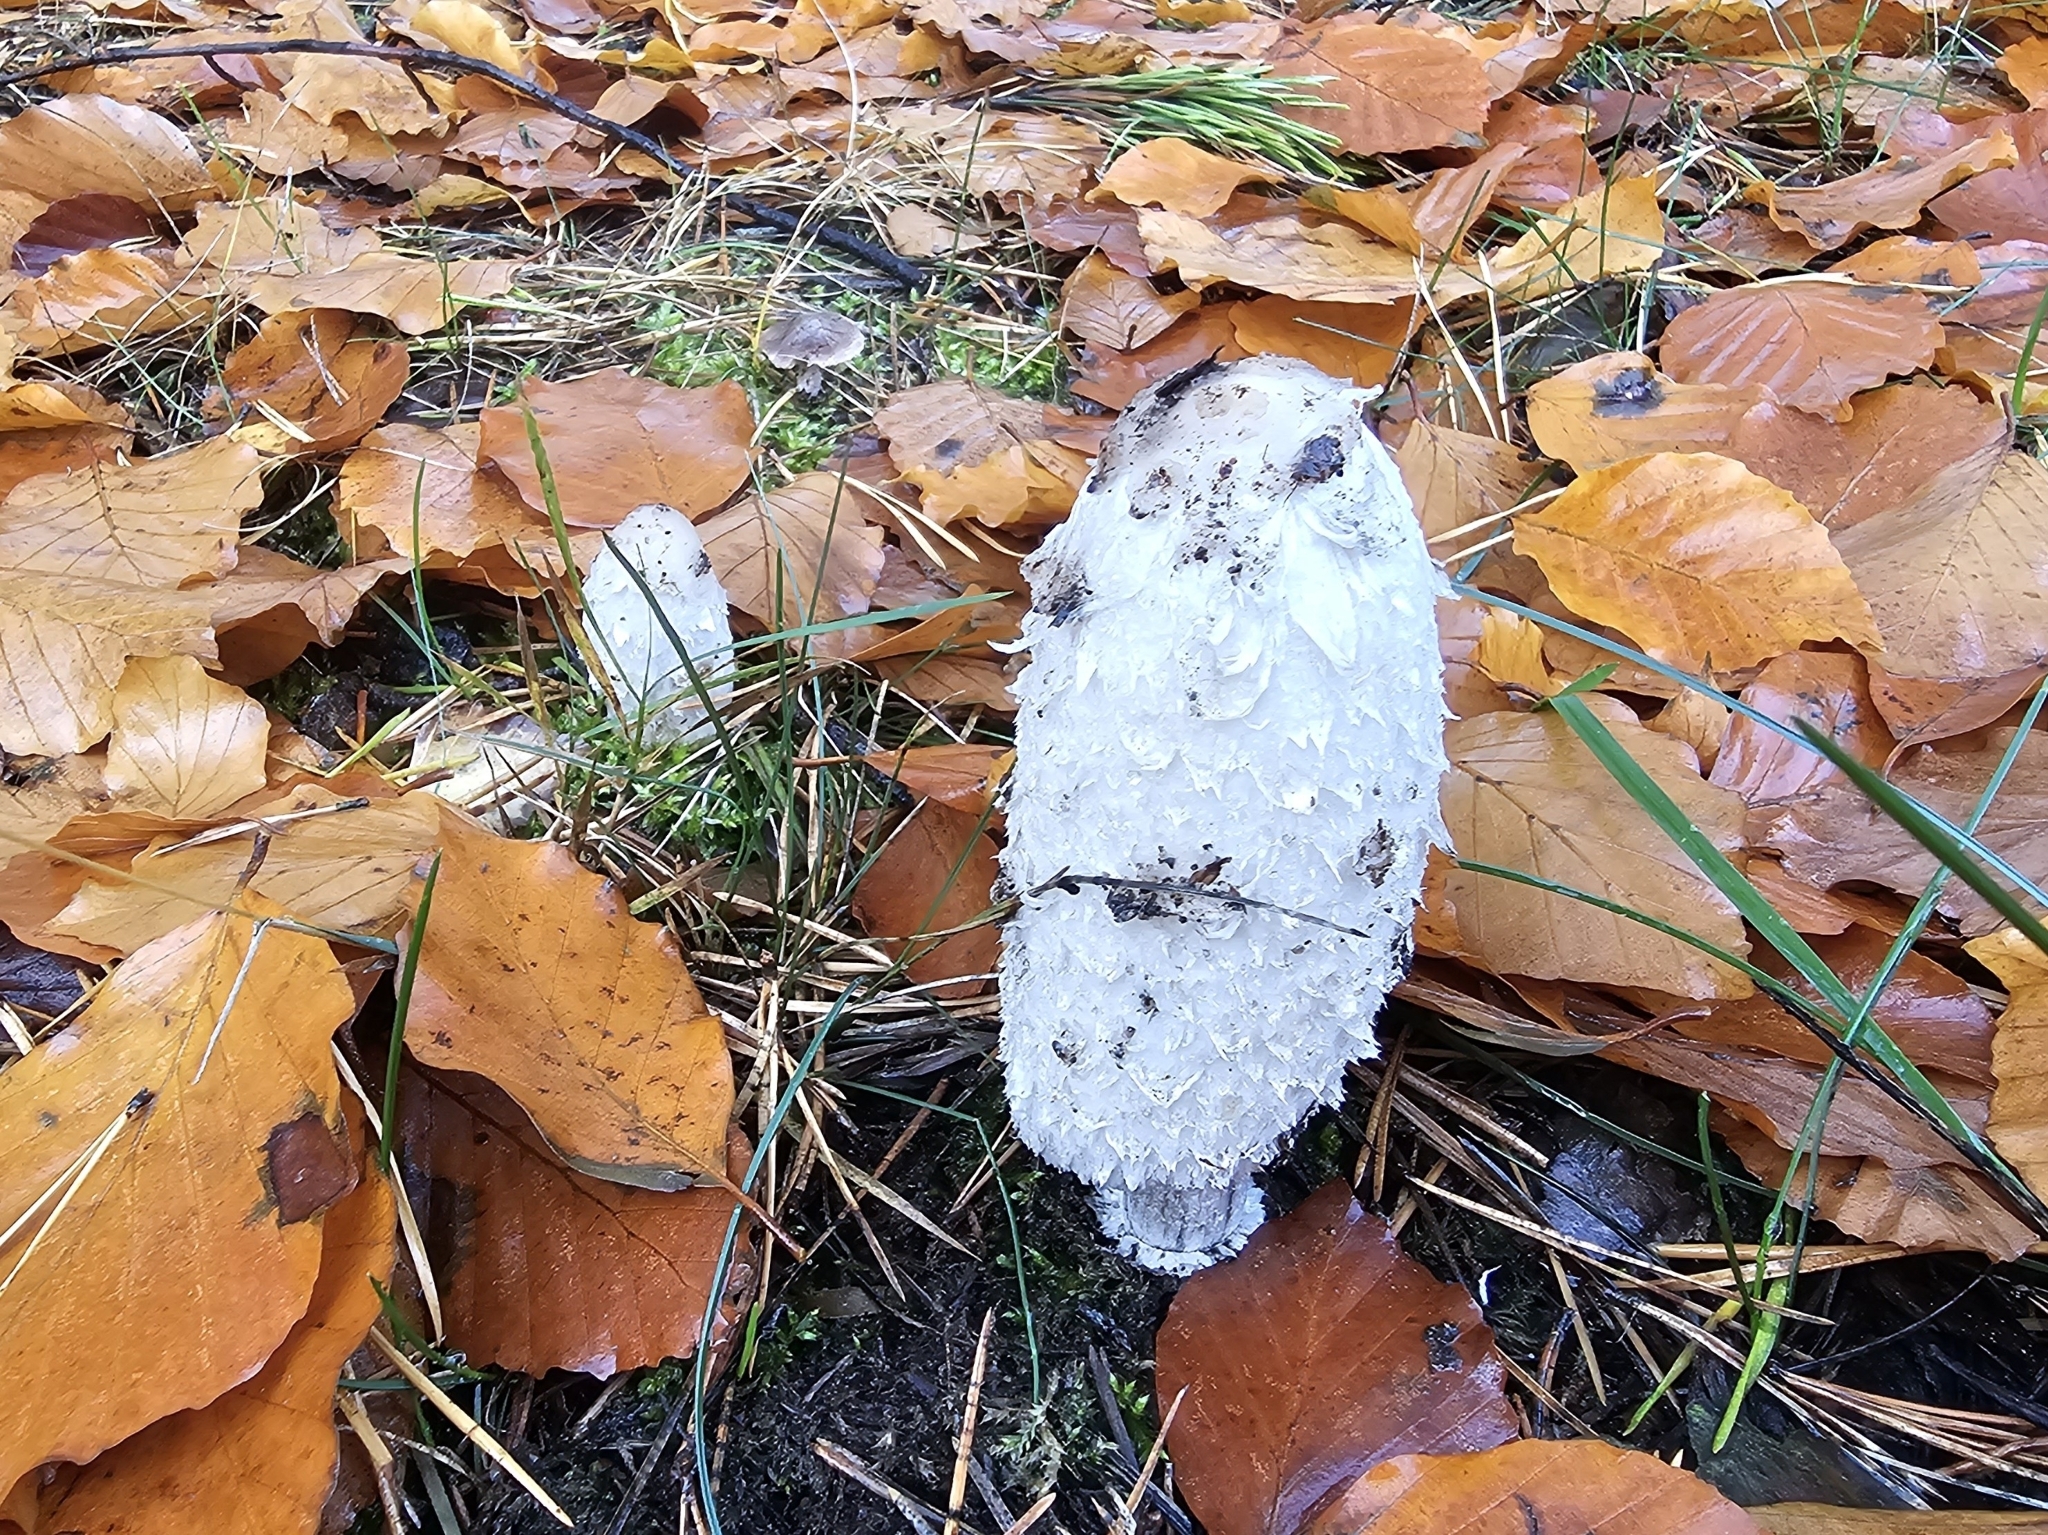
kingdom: Fungi
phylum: Basidiomycota
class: Agaricomycetes
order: Agaricales
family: Agaricaceae
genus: Coprinus
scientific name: Coprinus comatus
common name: Lawyer's wig
